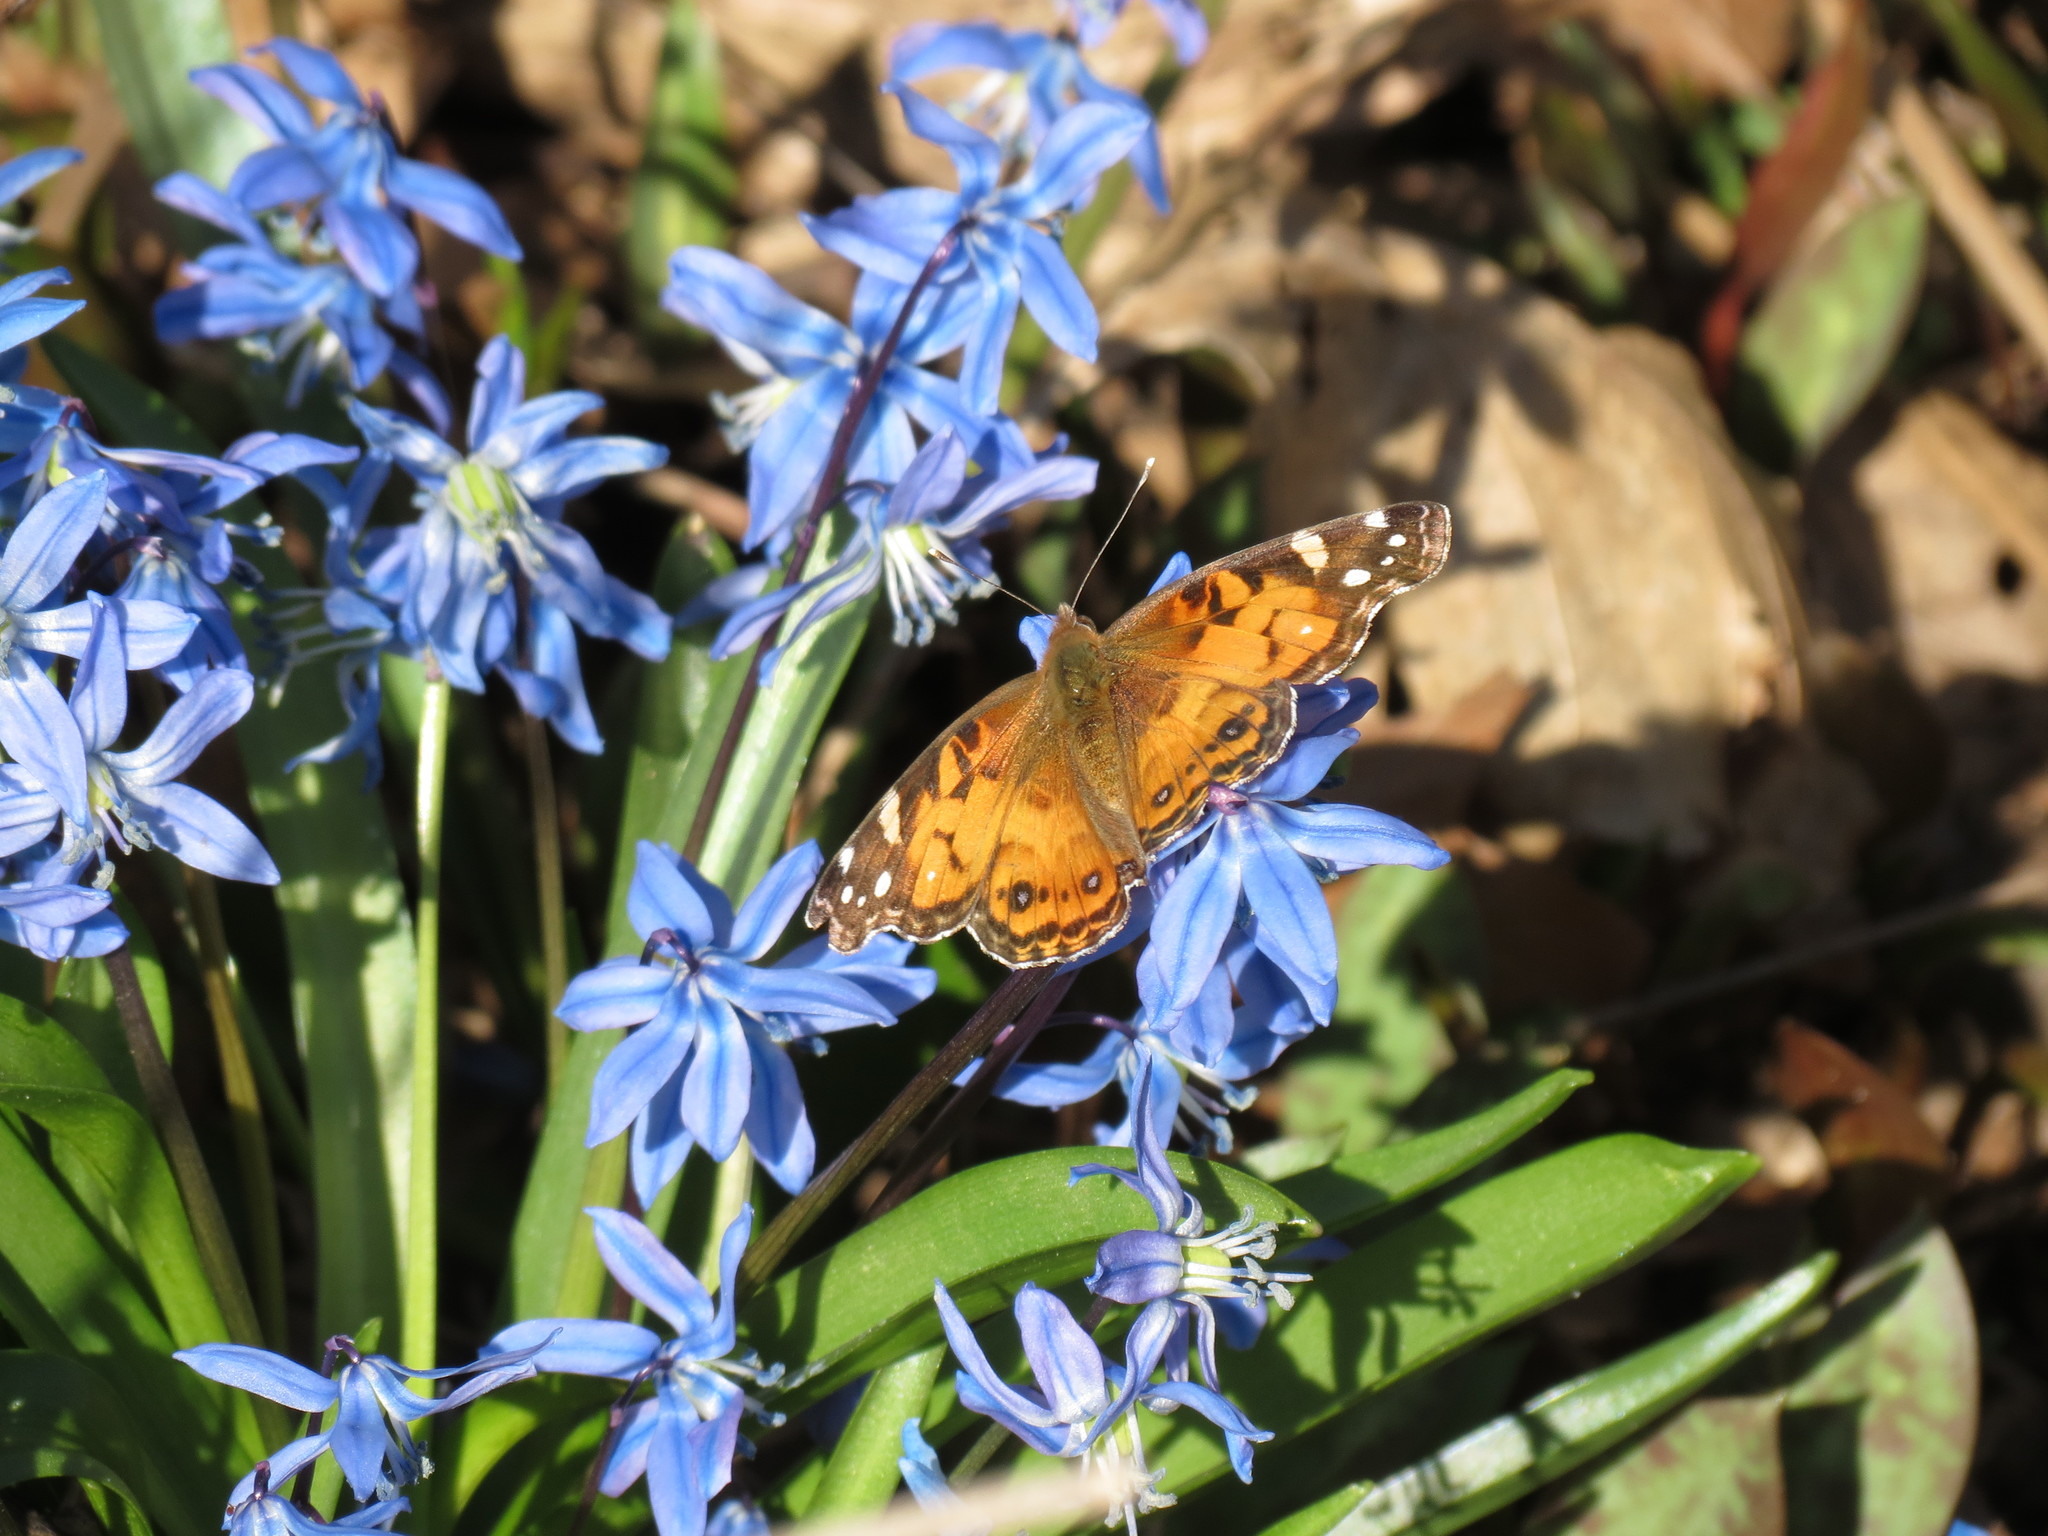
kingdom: Animalia
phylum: Arthropoda
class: Insecta
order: Lepidoptera
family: Nymphalidae
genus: Vanessa
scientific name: Vanessa virginiensis
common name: American lady
